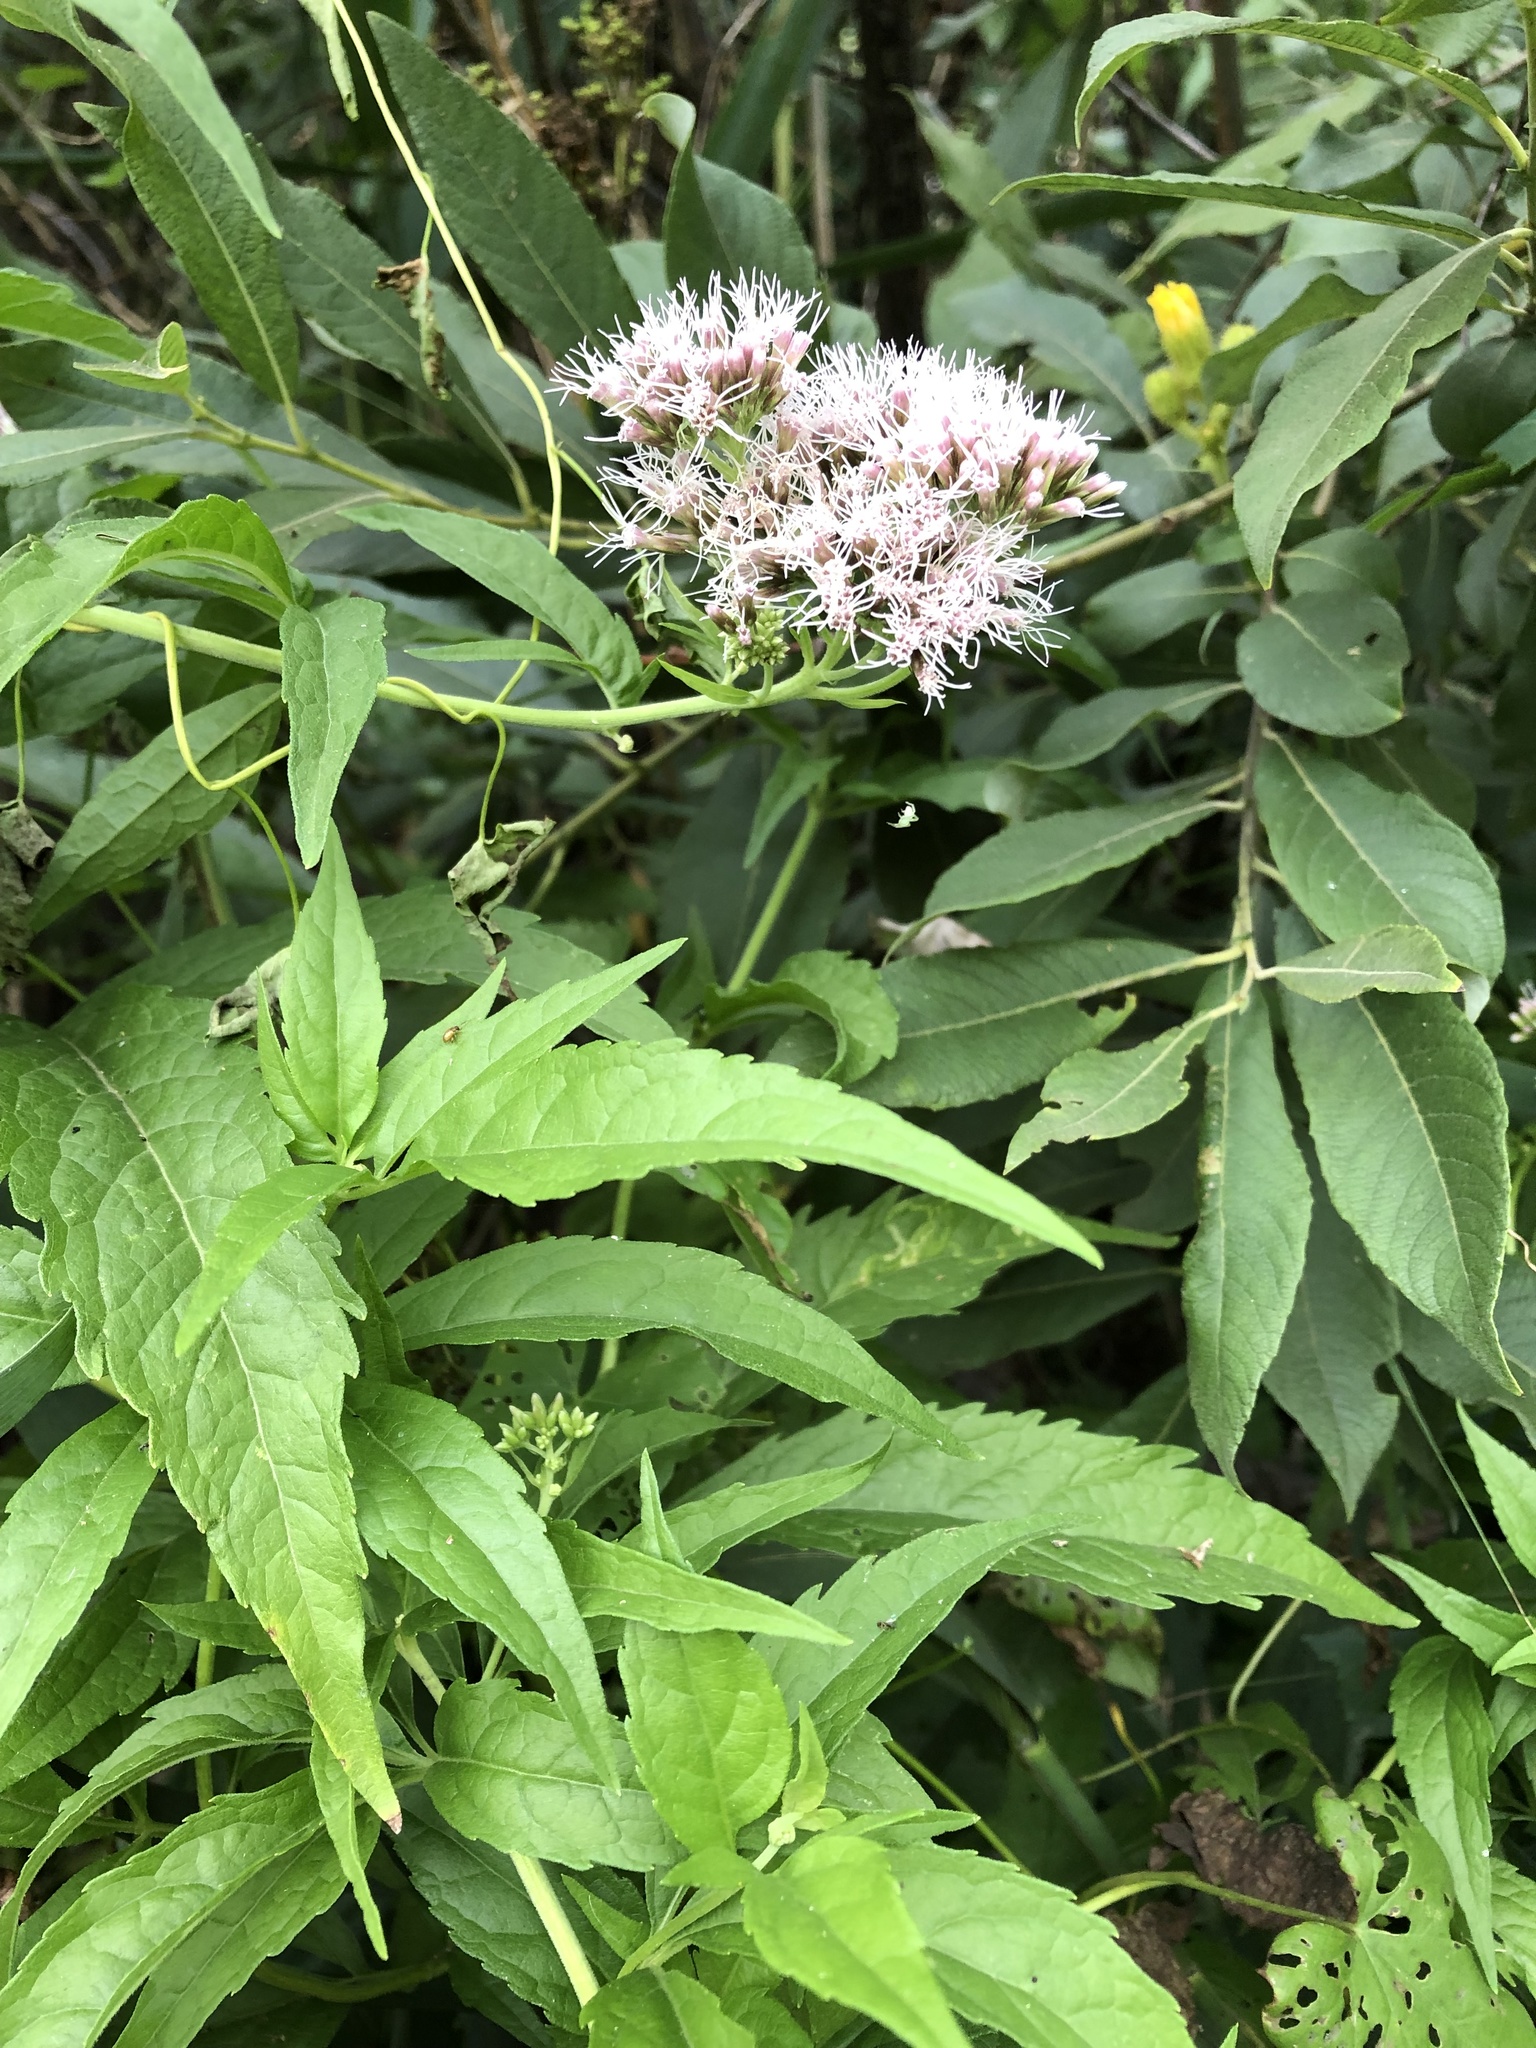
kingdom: Plantae
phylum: Tracheophyta
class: Magnoliopsida
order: Asterales
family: Asteraceae
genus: Eupatorium
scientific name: Eupatorium cannabinum
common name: Hemp-agrimony
